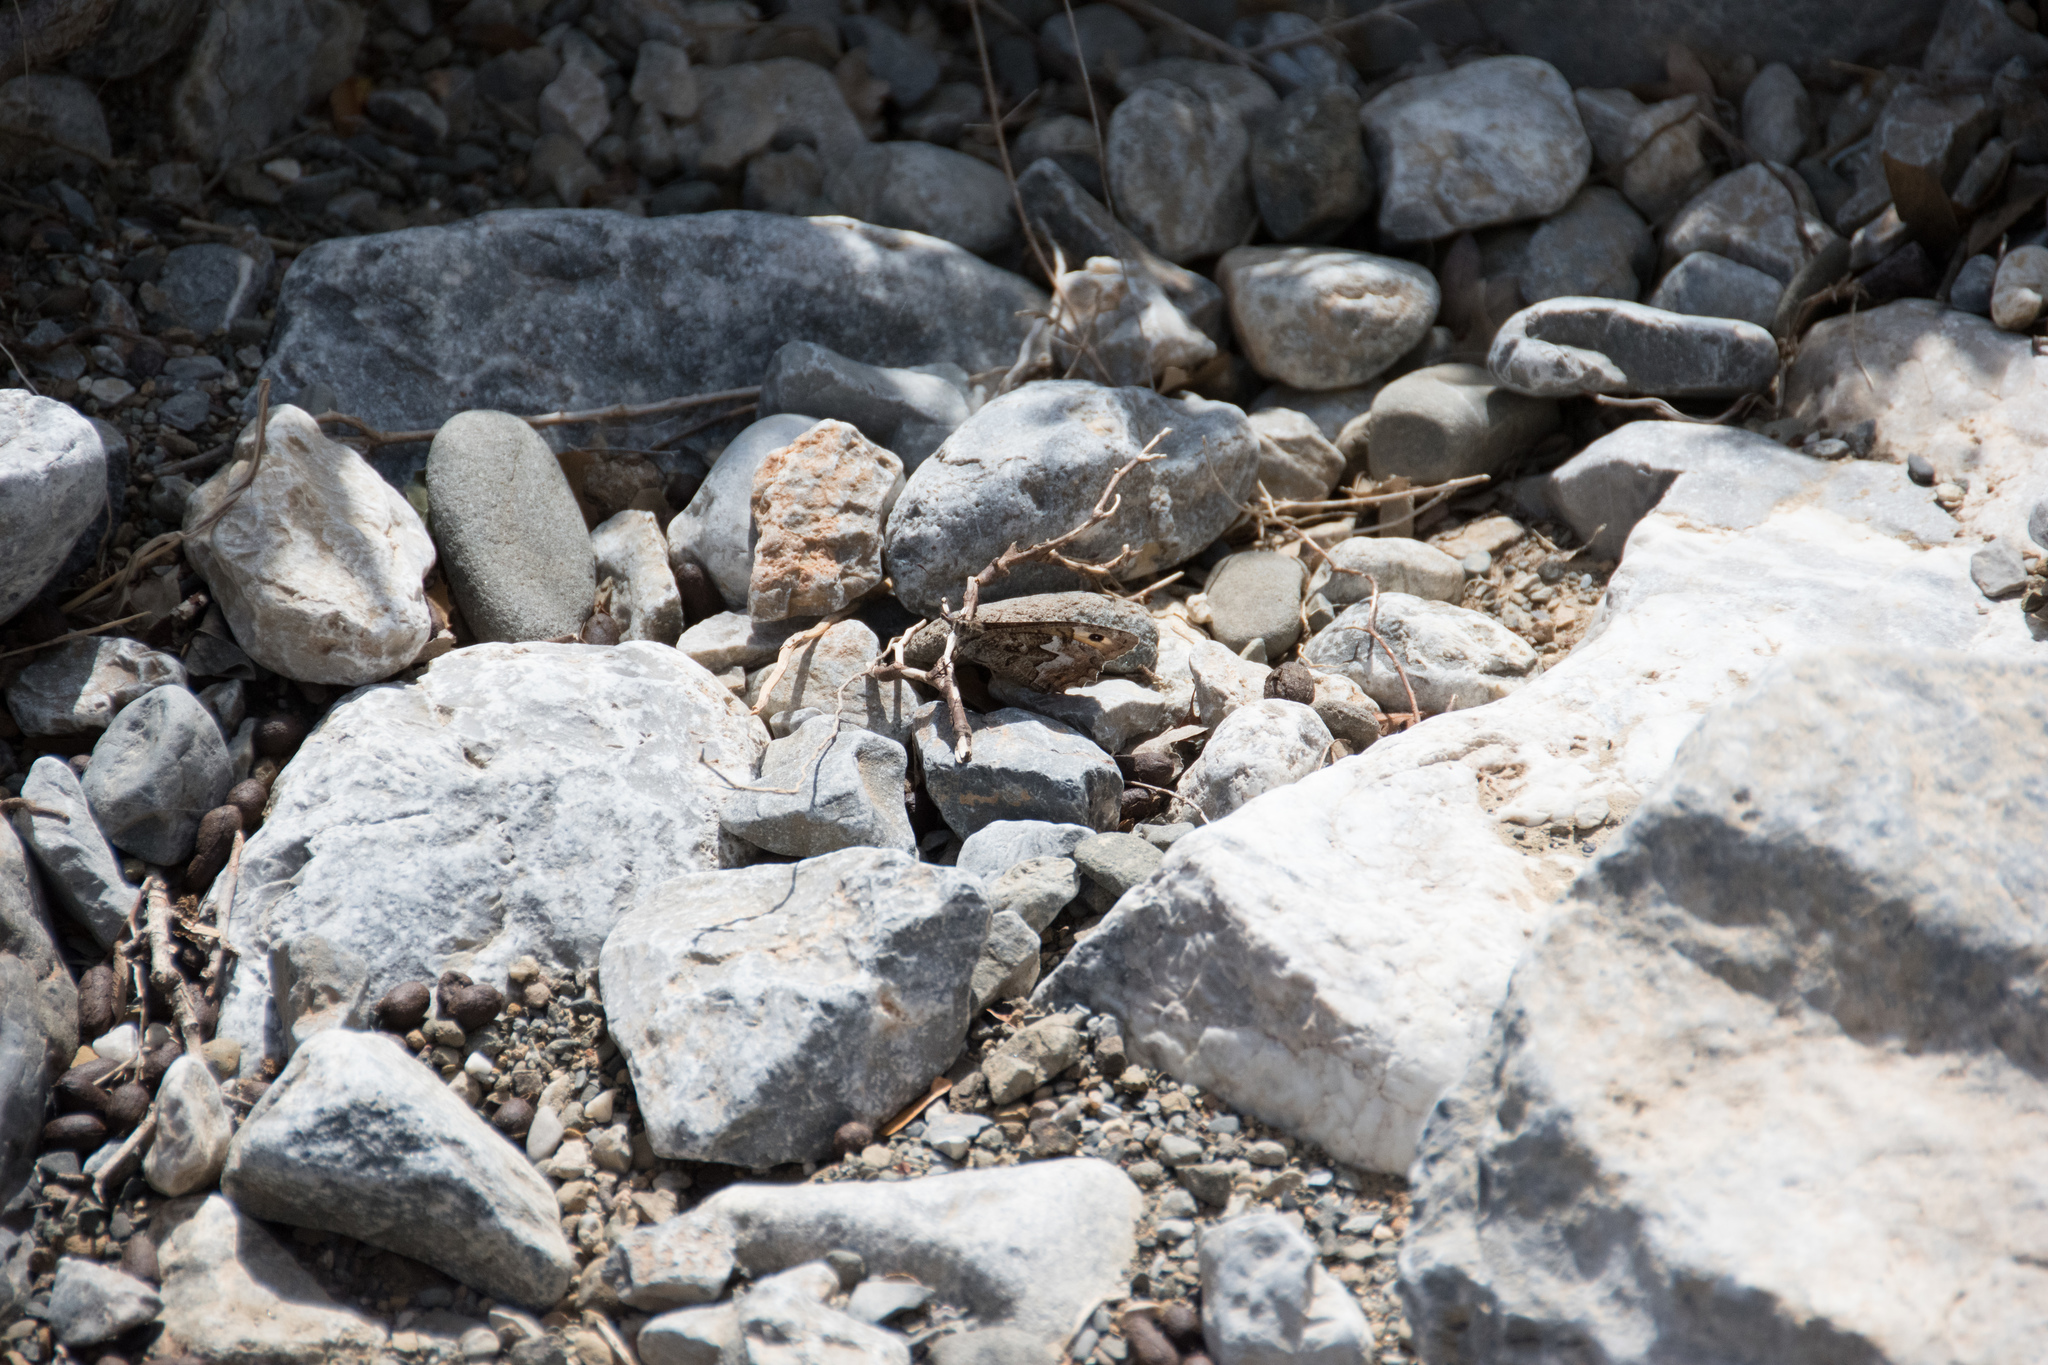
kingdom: Animalia
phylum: Arthropoda
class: Insecta
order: Lepidoptera
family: Nymphalidae
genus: Hipparchia
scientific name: Hipparchia cretica
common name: Cretan grayling
